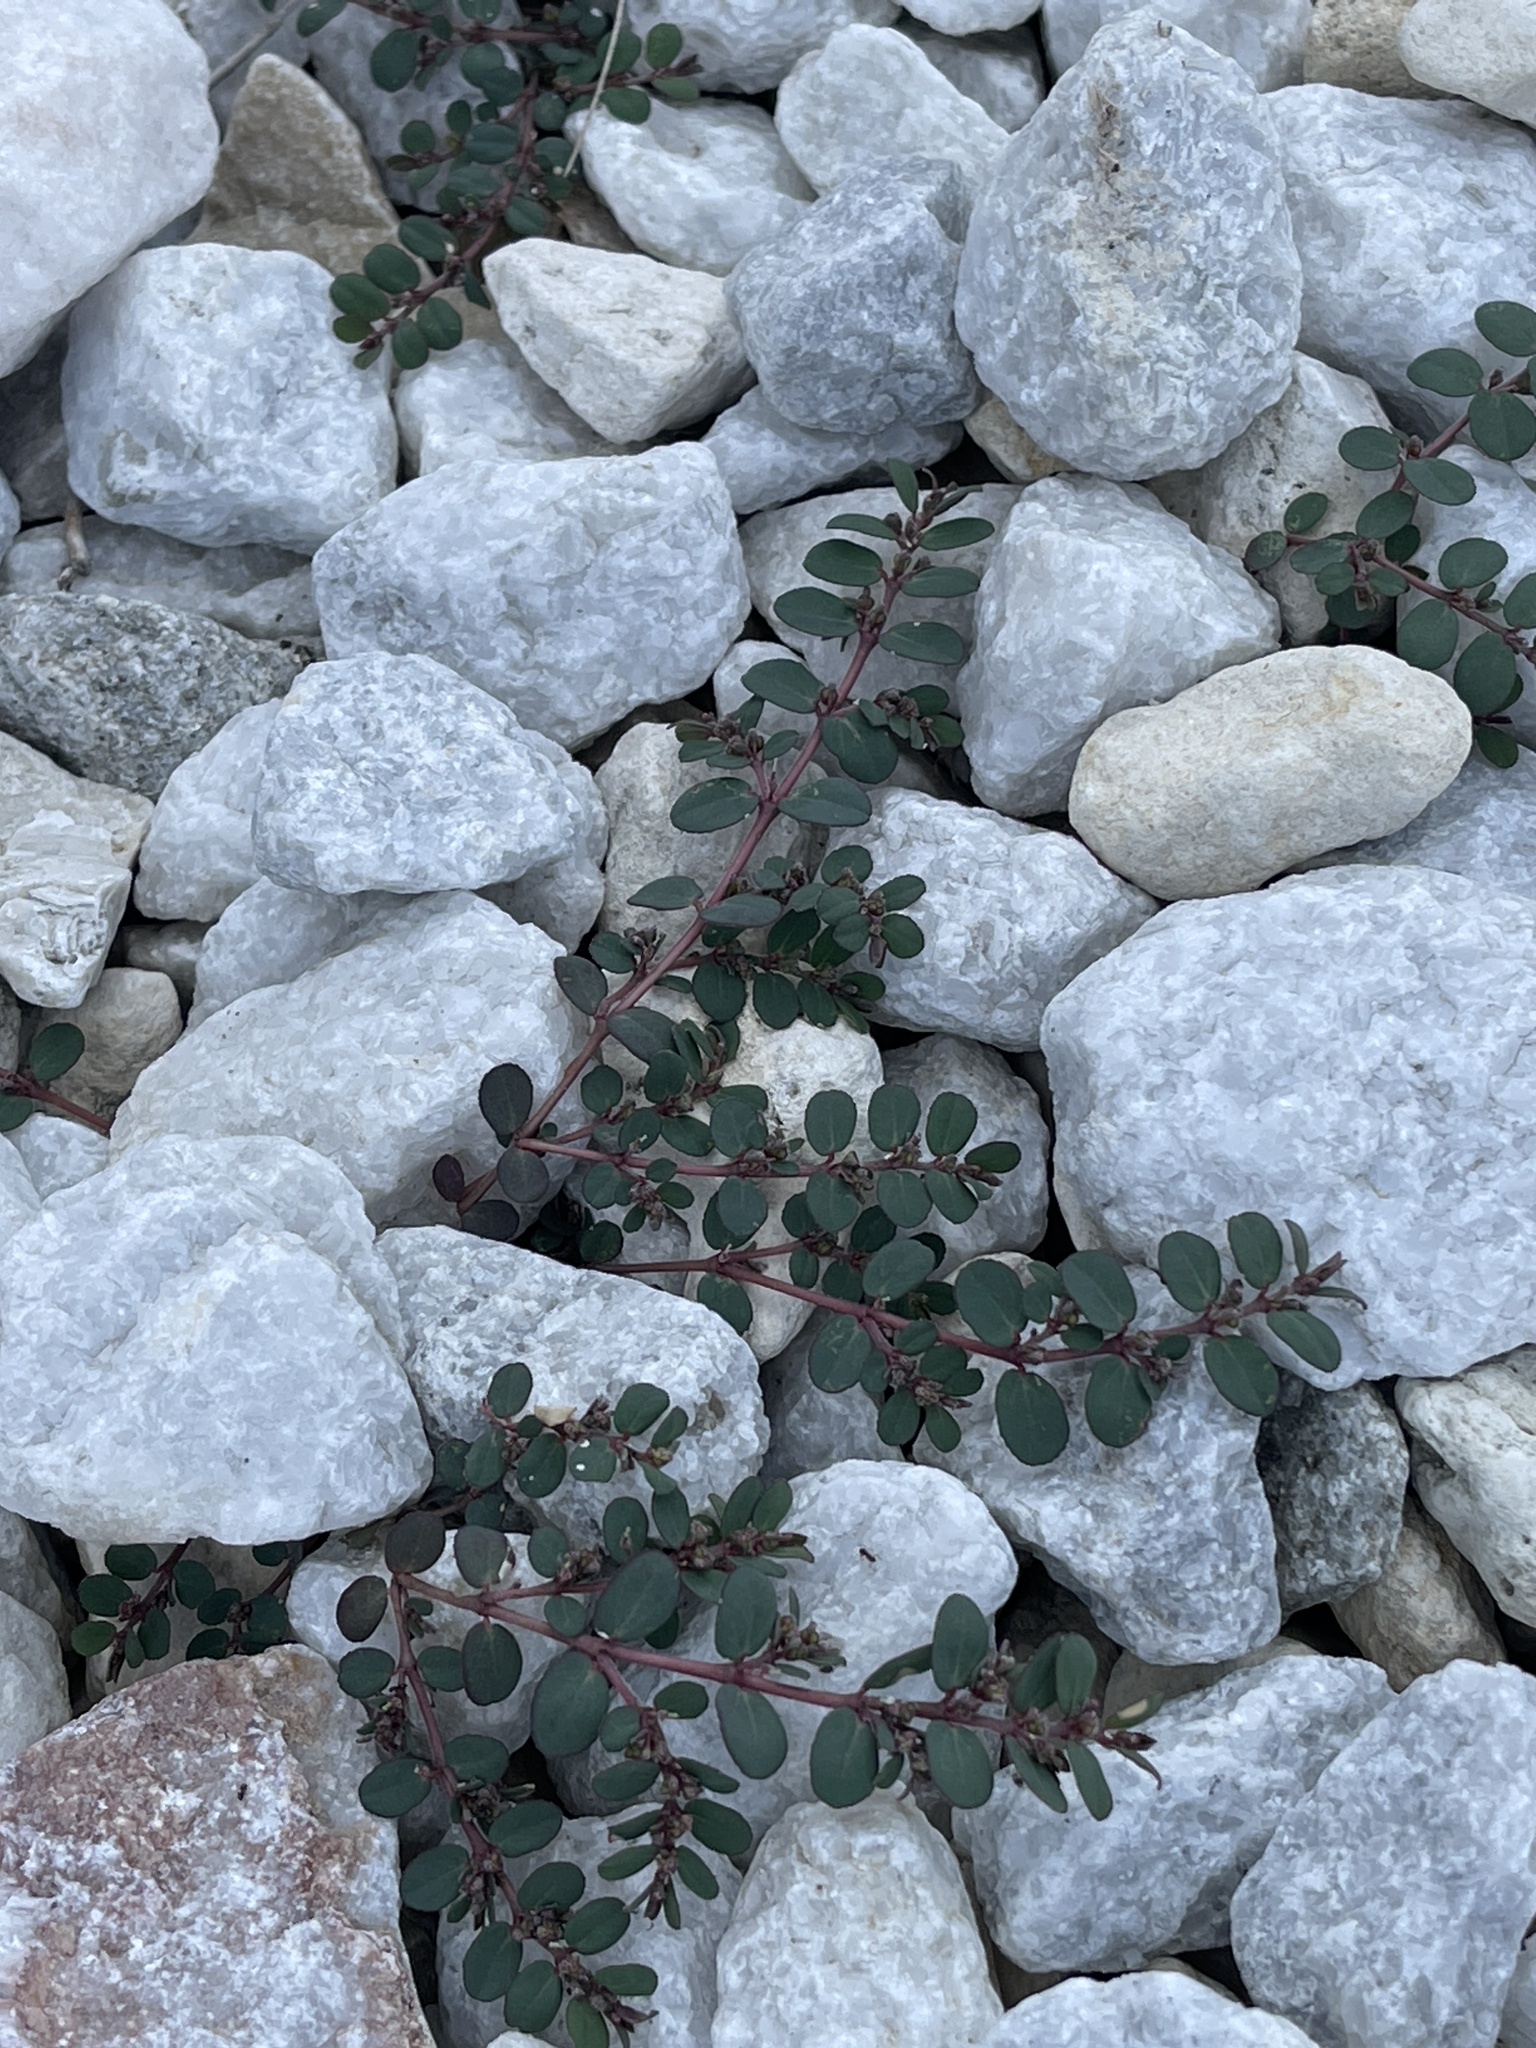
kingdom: Plantae
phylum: Tracheophyta
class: Magnoliopsida
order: Malpighiales
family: Euphorbiaceae
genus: Euphorbia
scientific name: Euphorbia prostrata
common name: Prostrate sandmat
